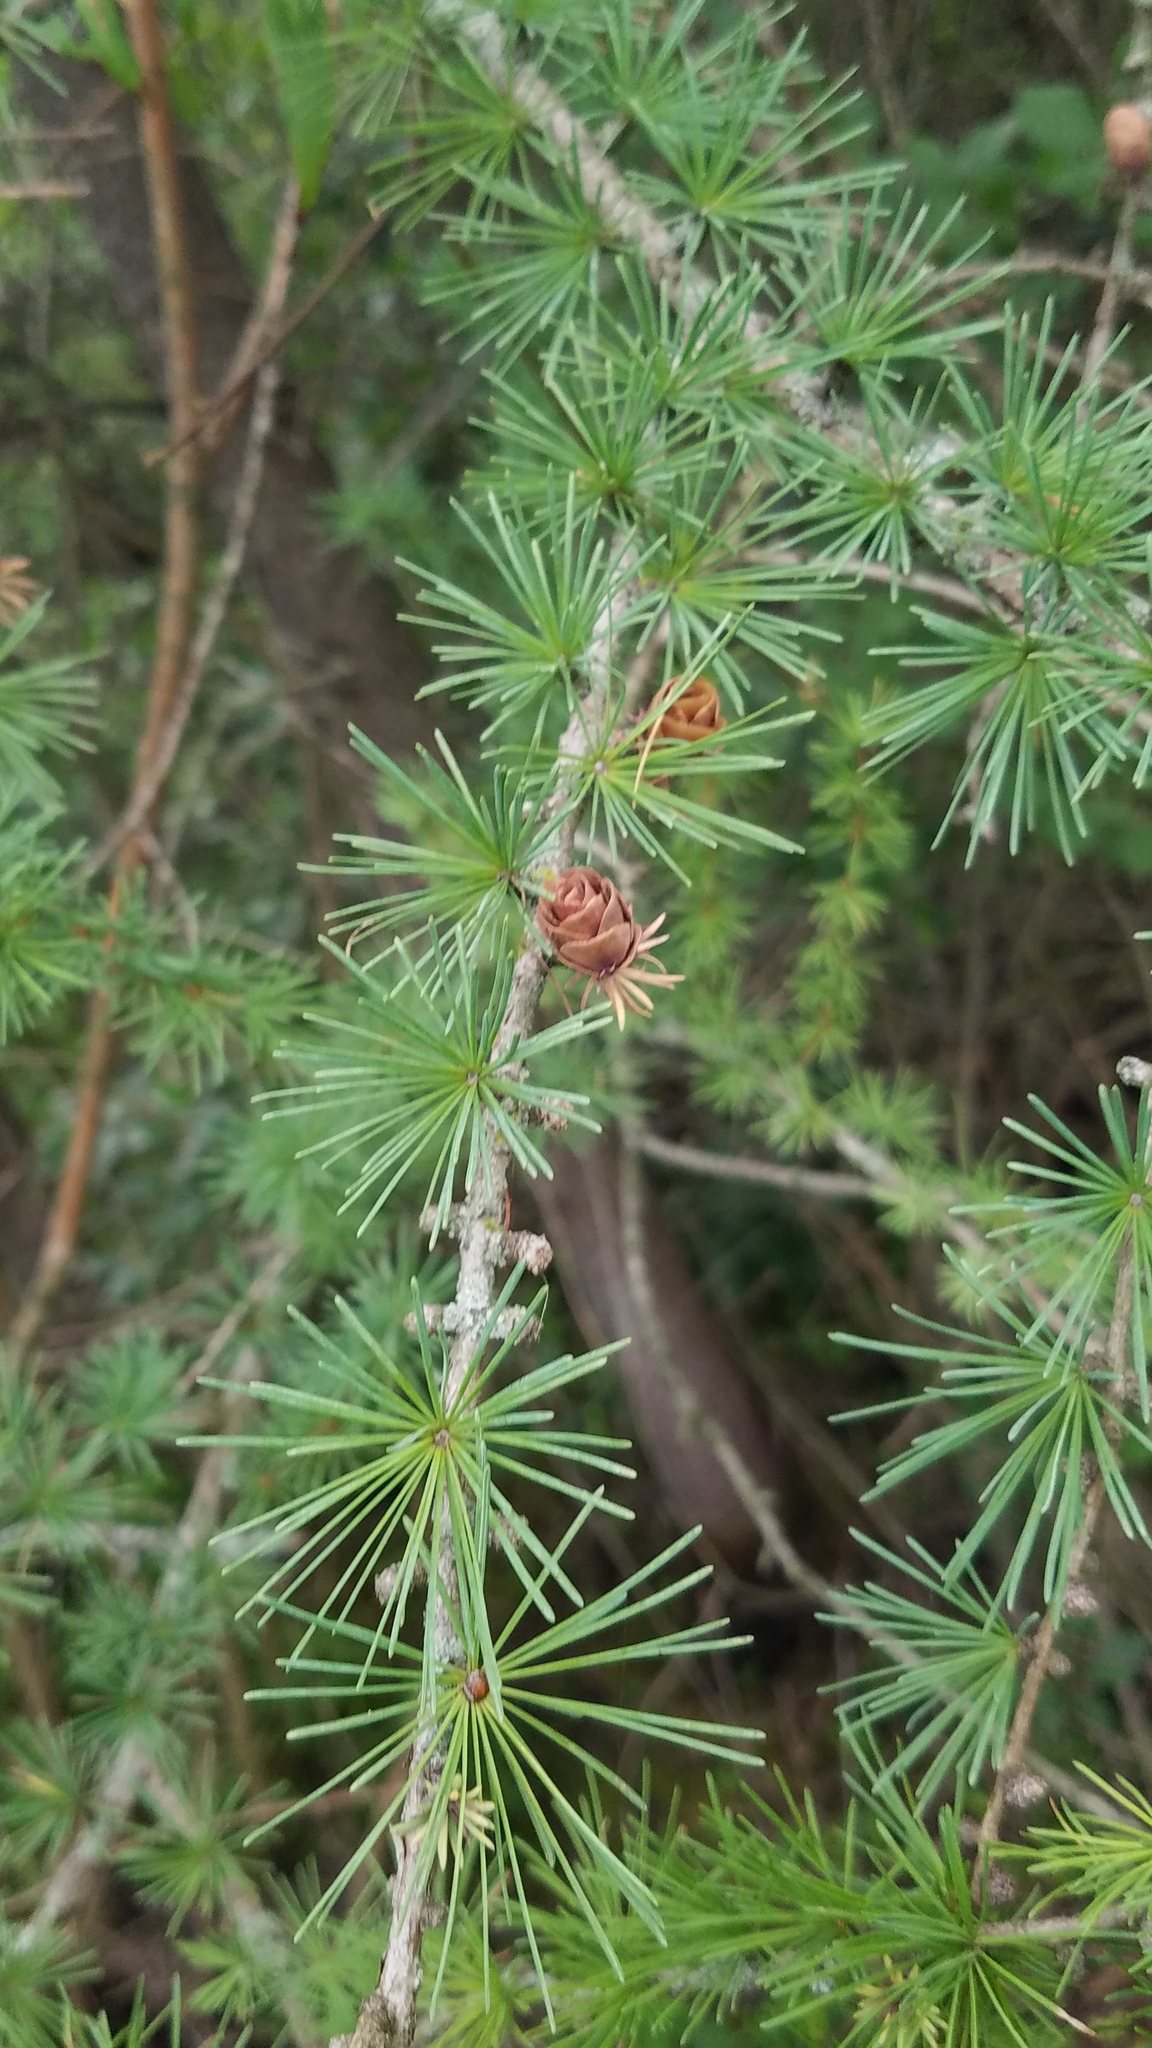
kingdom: Plantae
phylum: Tracheophyta
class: Pinopsida
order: Pinales
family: Pinaceae
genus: Larix
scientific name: Larix laricina
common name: American larch
